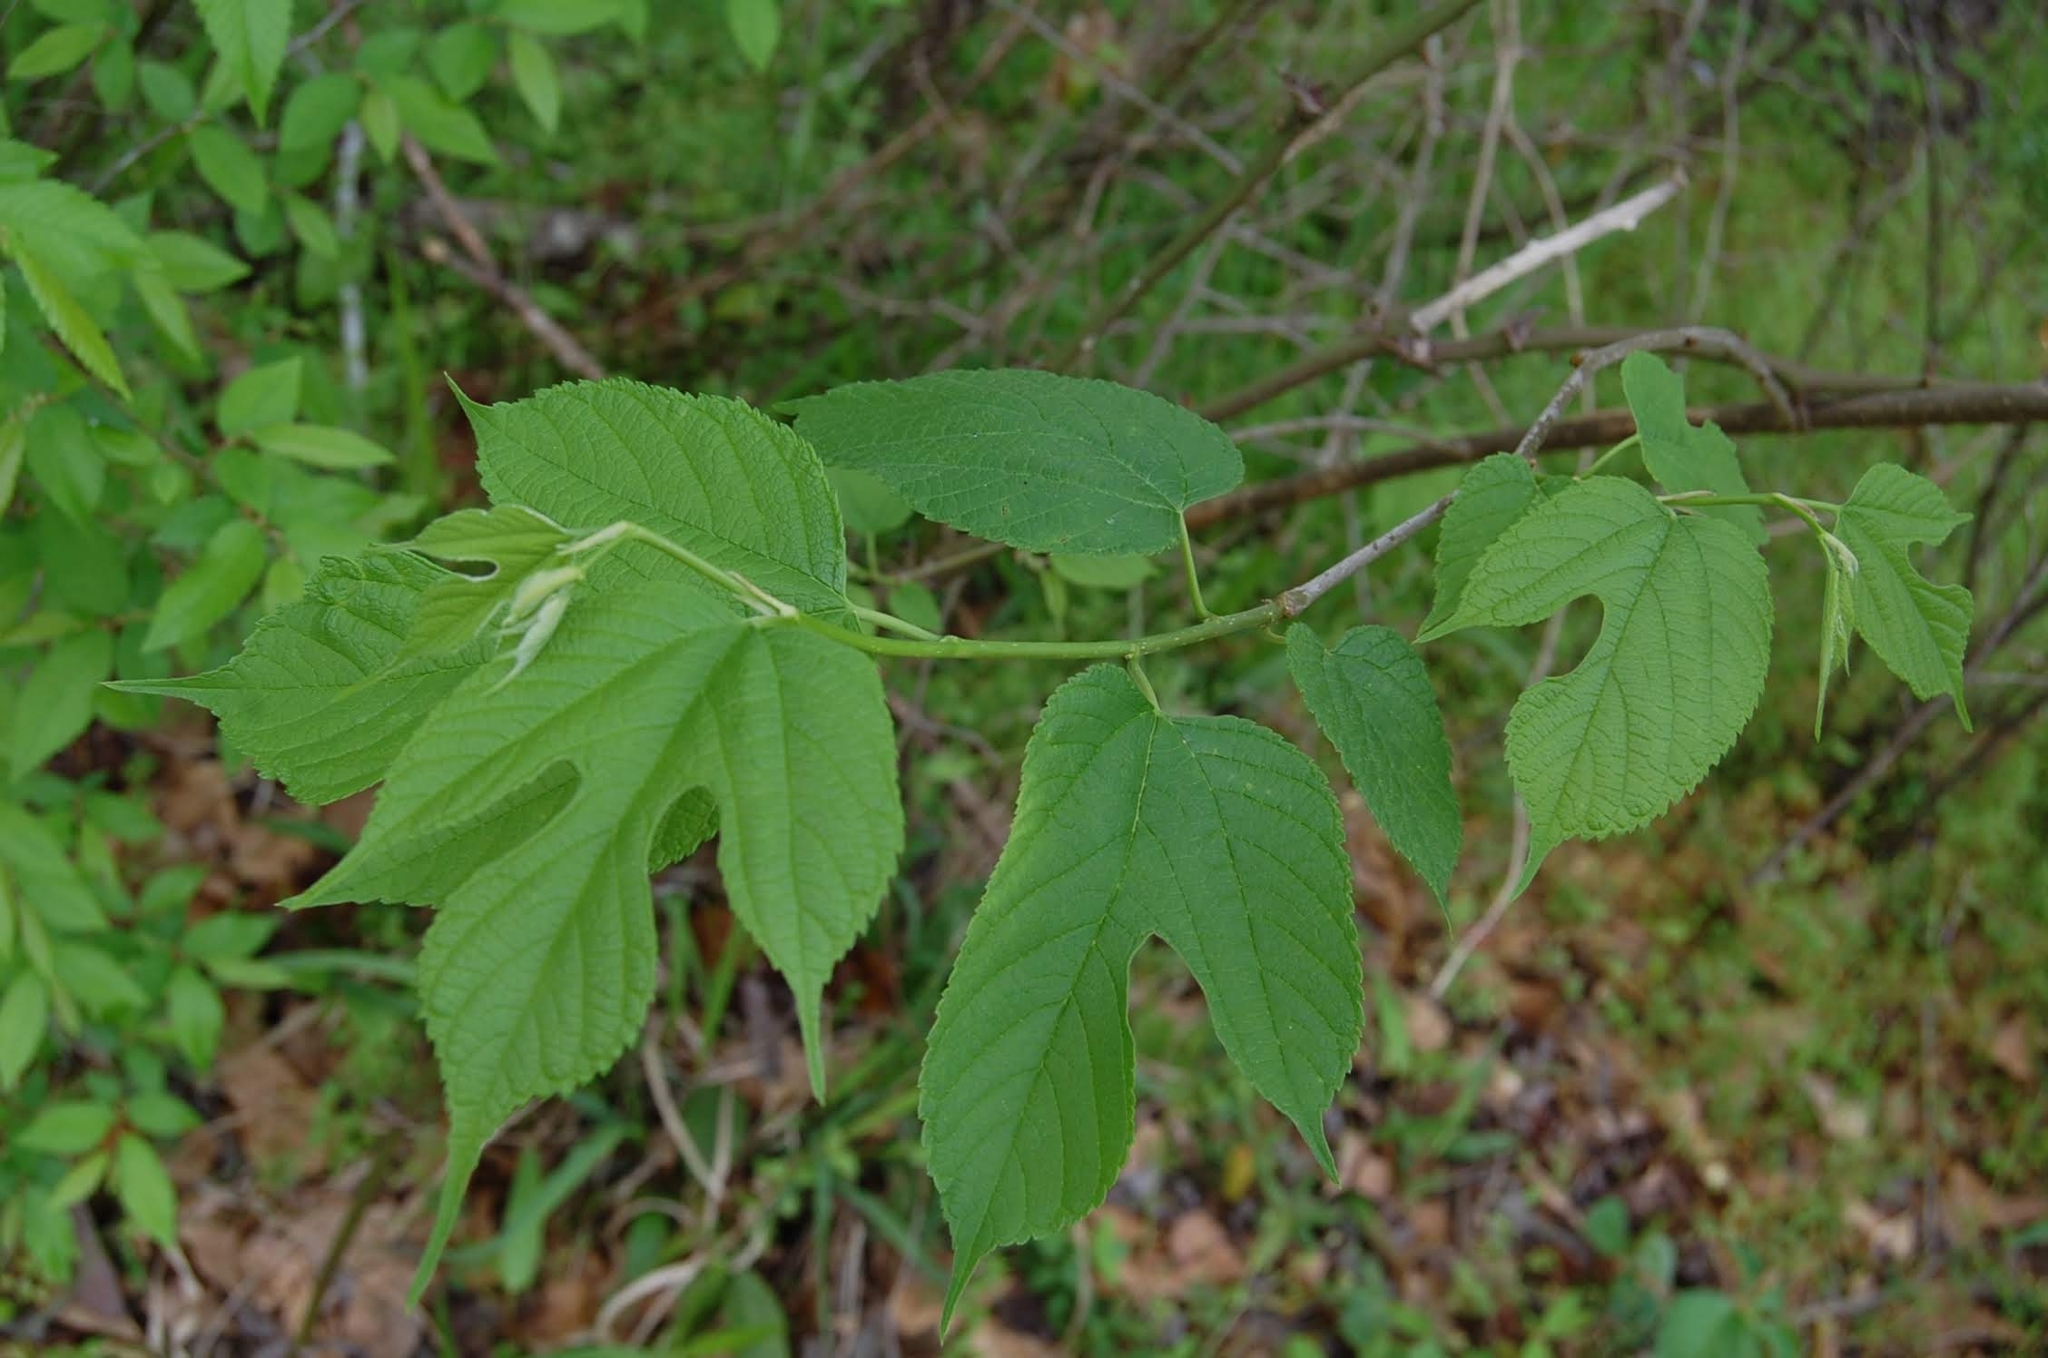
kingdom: Plantae
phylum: Tracheophyta
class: Magnoliopsida
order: Rosales
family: Moraceae
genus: Morus
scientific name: Morus rubra
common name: Red mulberry
